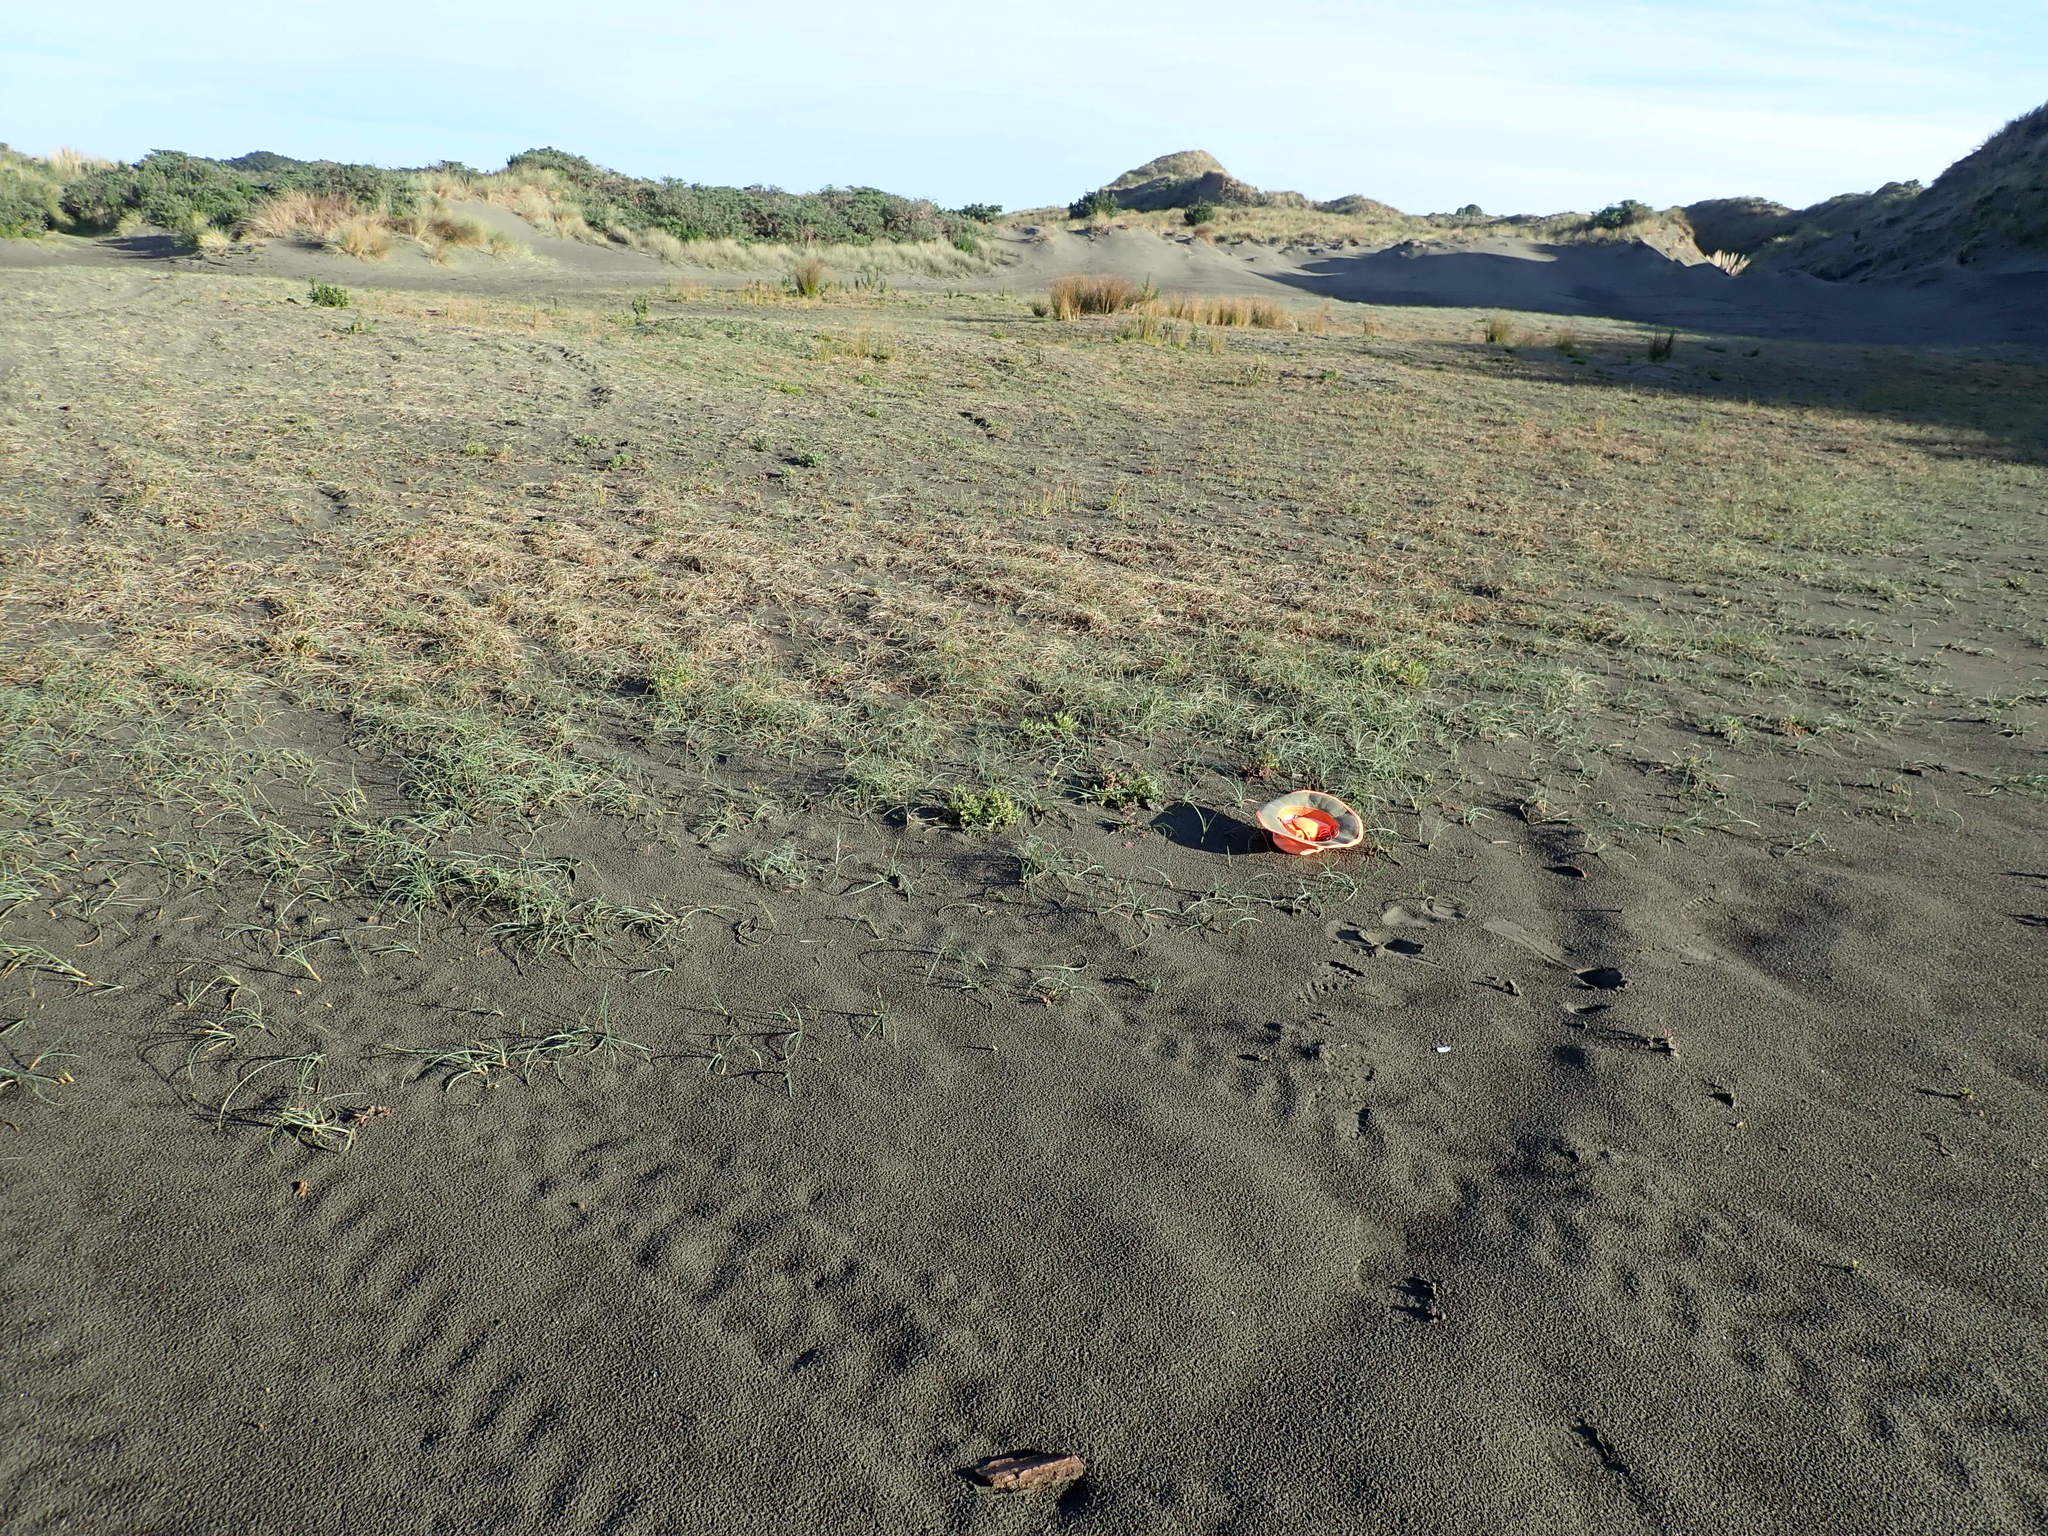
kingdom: Plantae
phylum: Tracheophyta
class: Liliopsida
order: Poales
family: Cyperaceae
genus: Carex
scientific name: Carex pumila
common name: Dwarf sedge
